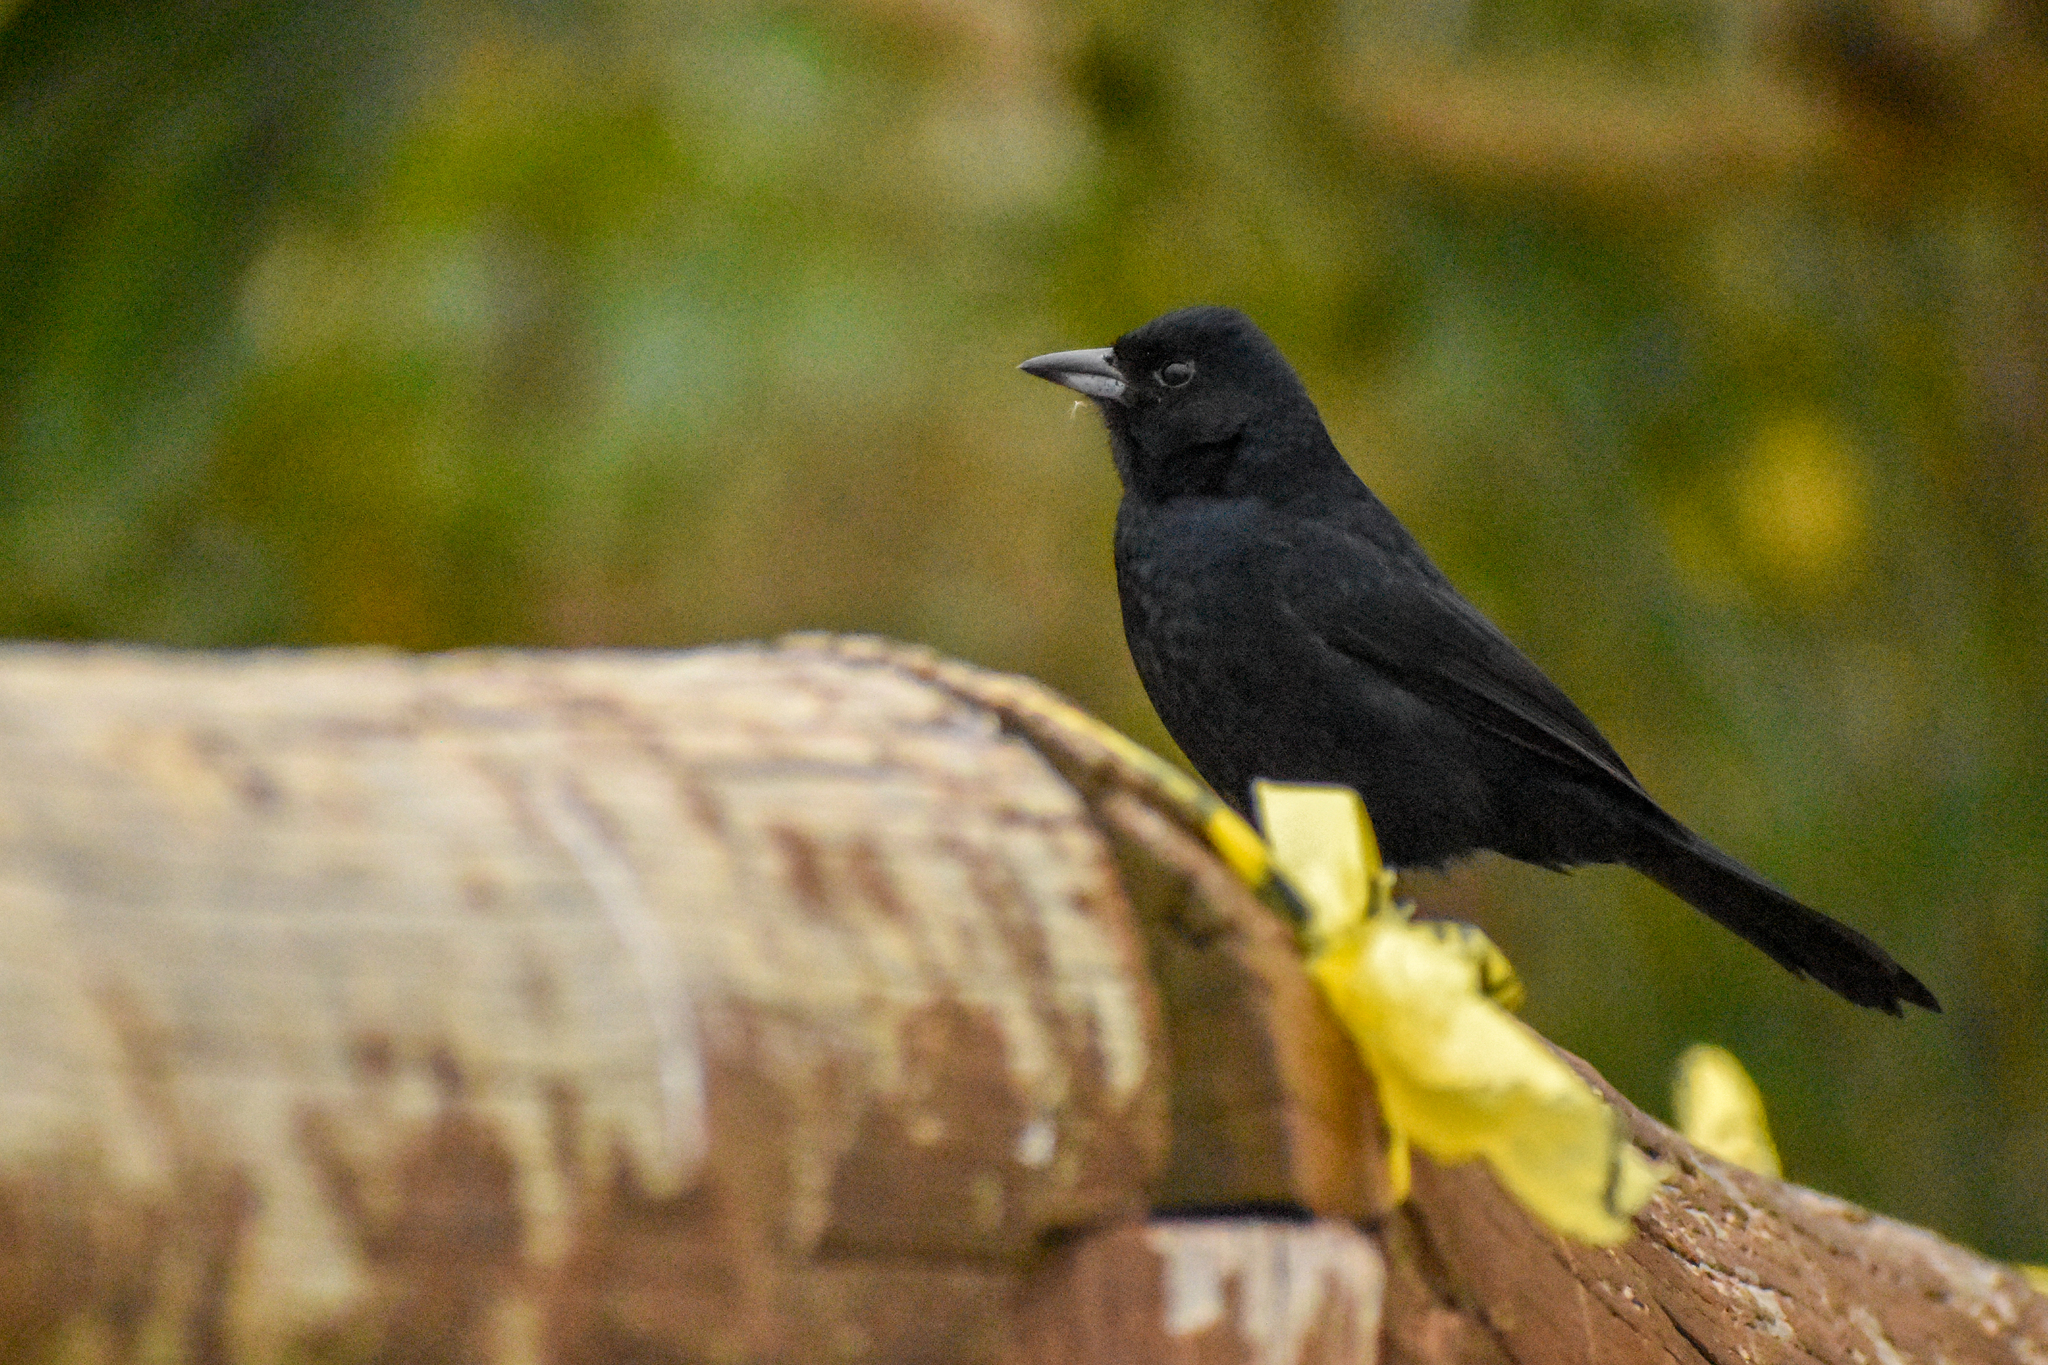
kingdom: Animalia
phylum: Chordata
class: Aves
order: Passeriformes
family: Thraupidae
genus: Tachyphonus
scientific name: Tachyphonus rufus
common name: White-lined tanager
